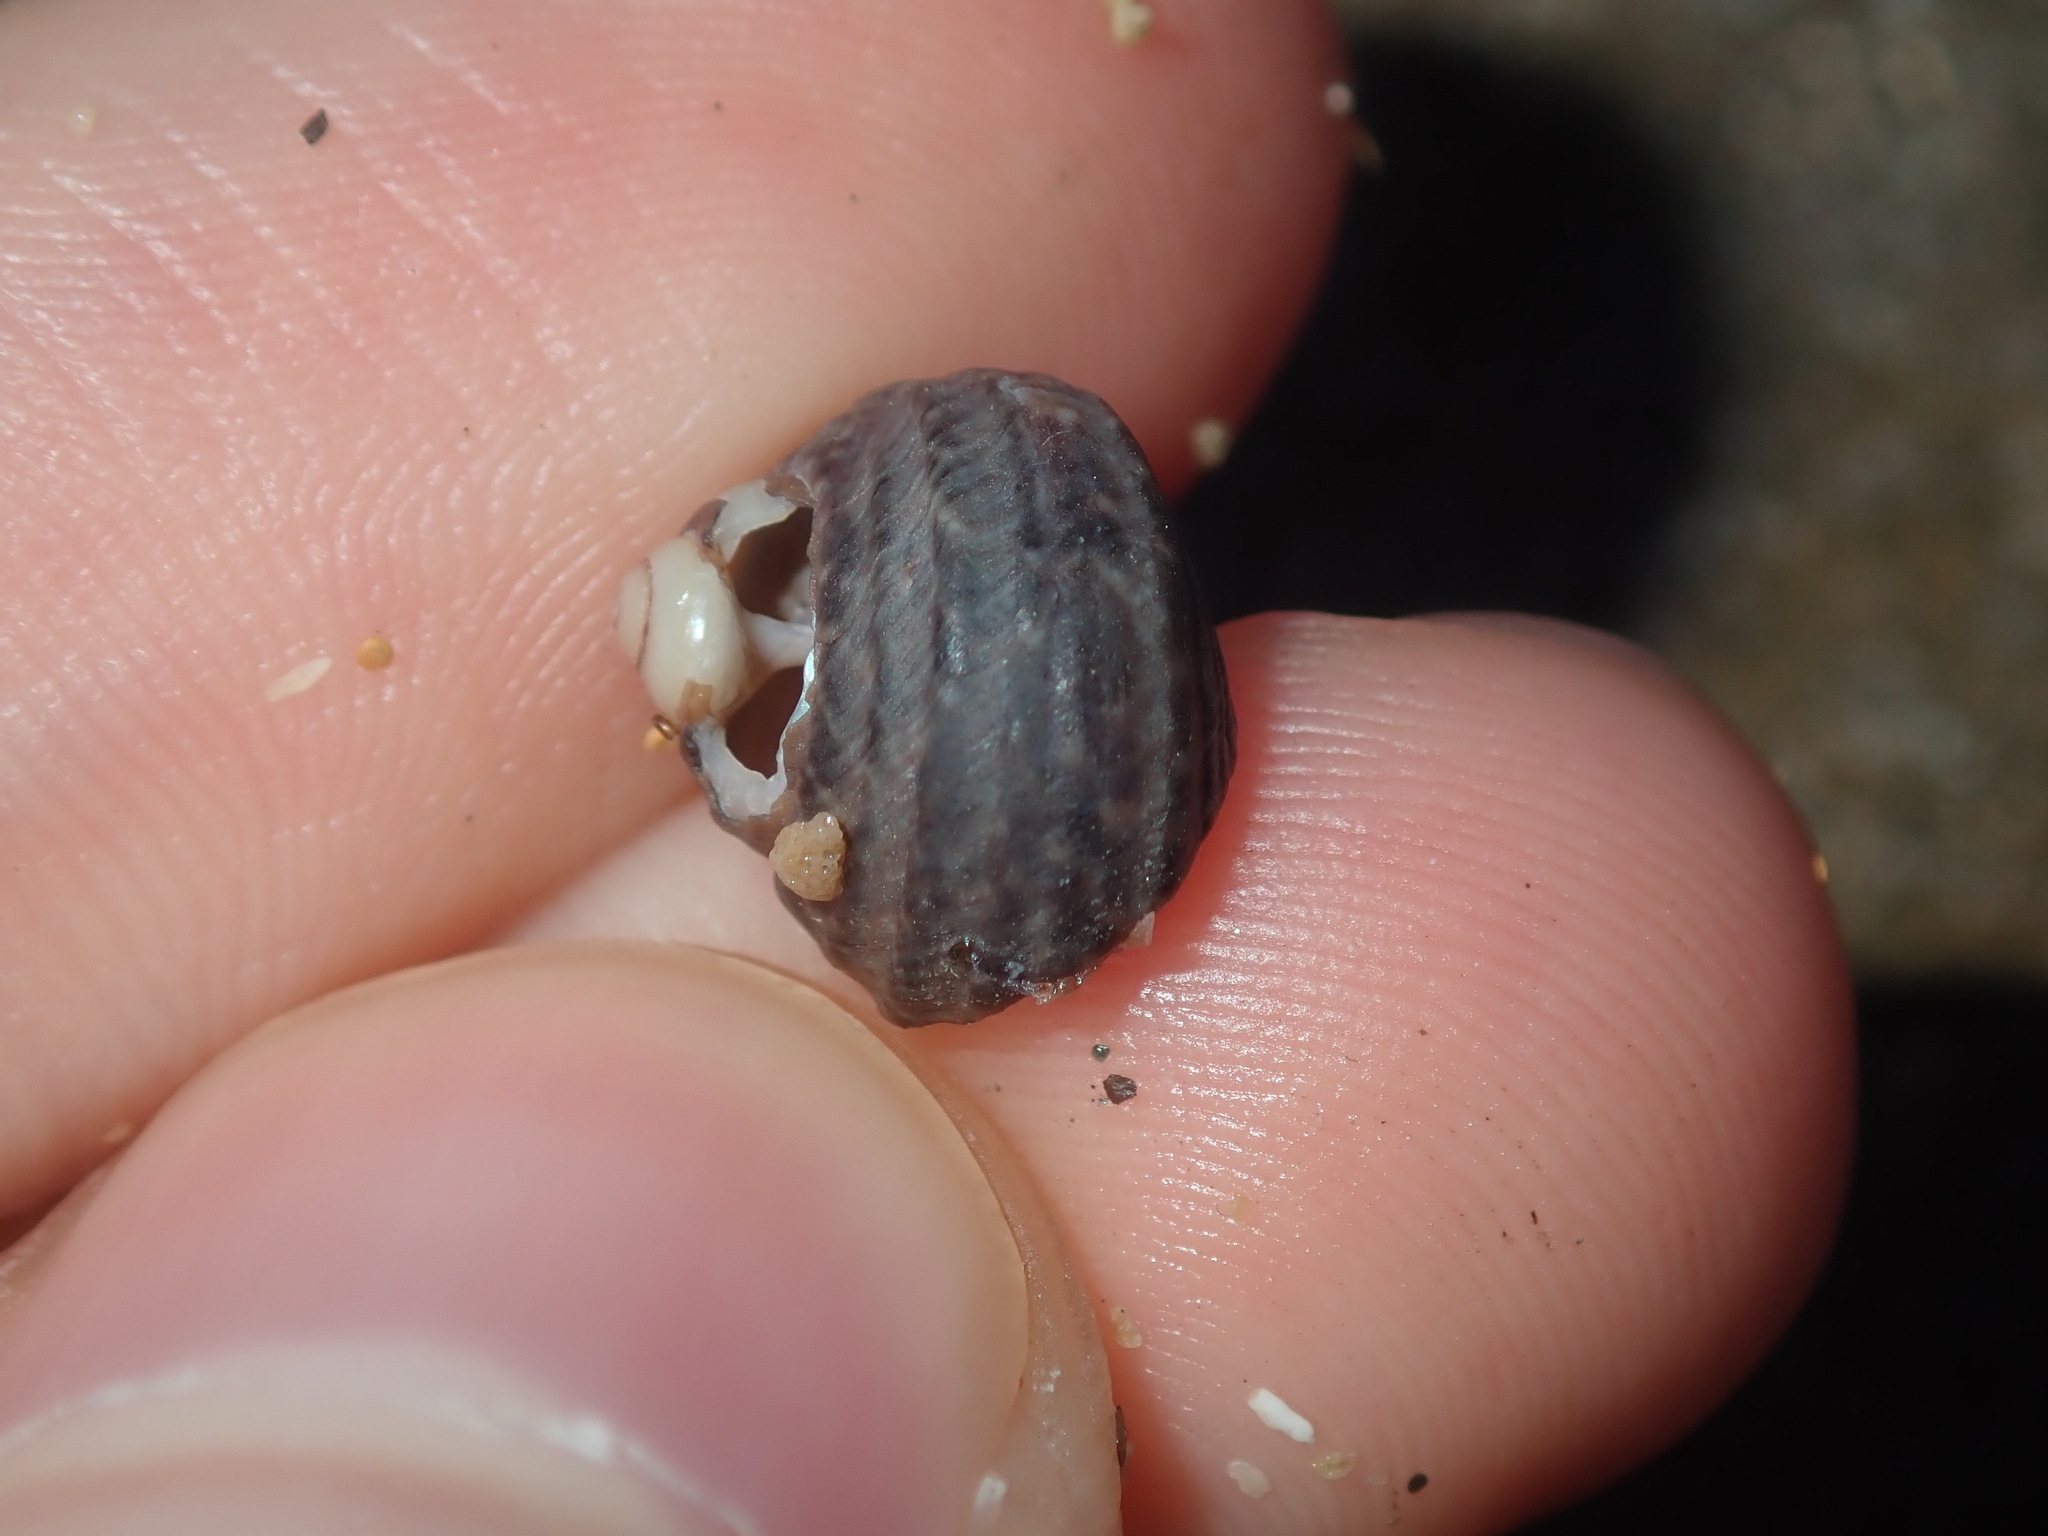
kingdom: Animalia
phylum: Mollusca
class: Gastropoda
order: Trochida
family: Trochidae
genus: Austrocochlea
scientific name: Austrocochlea constricta
